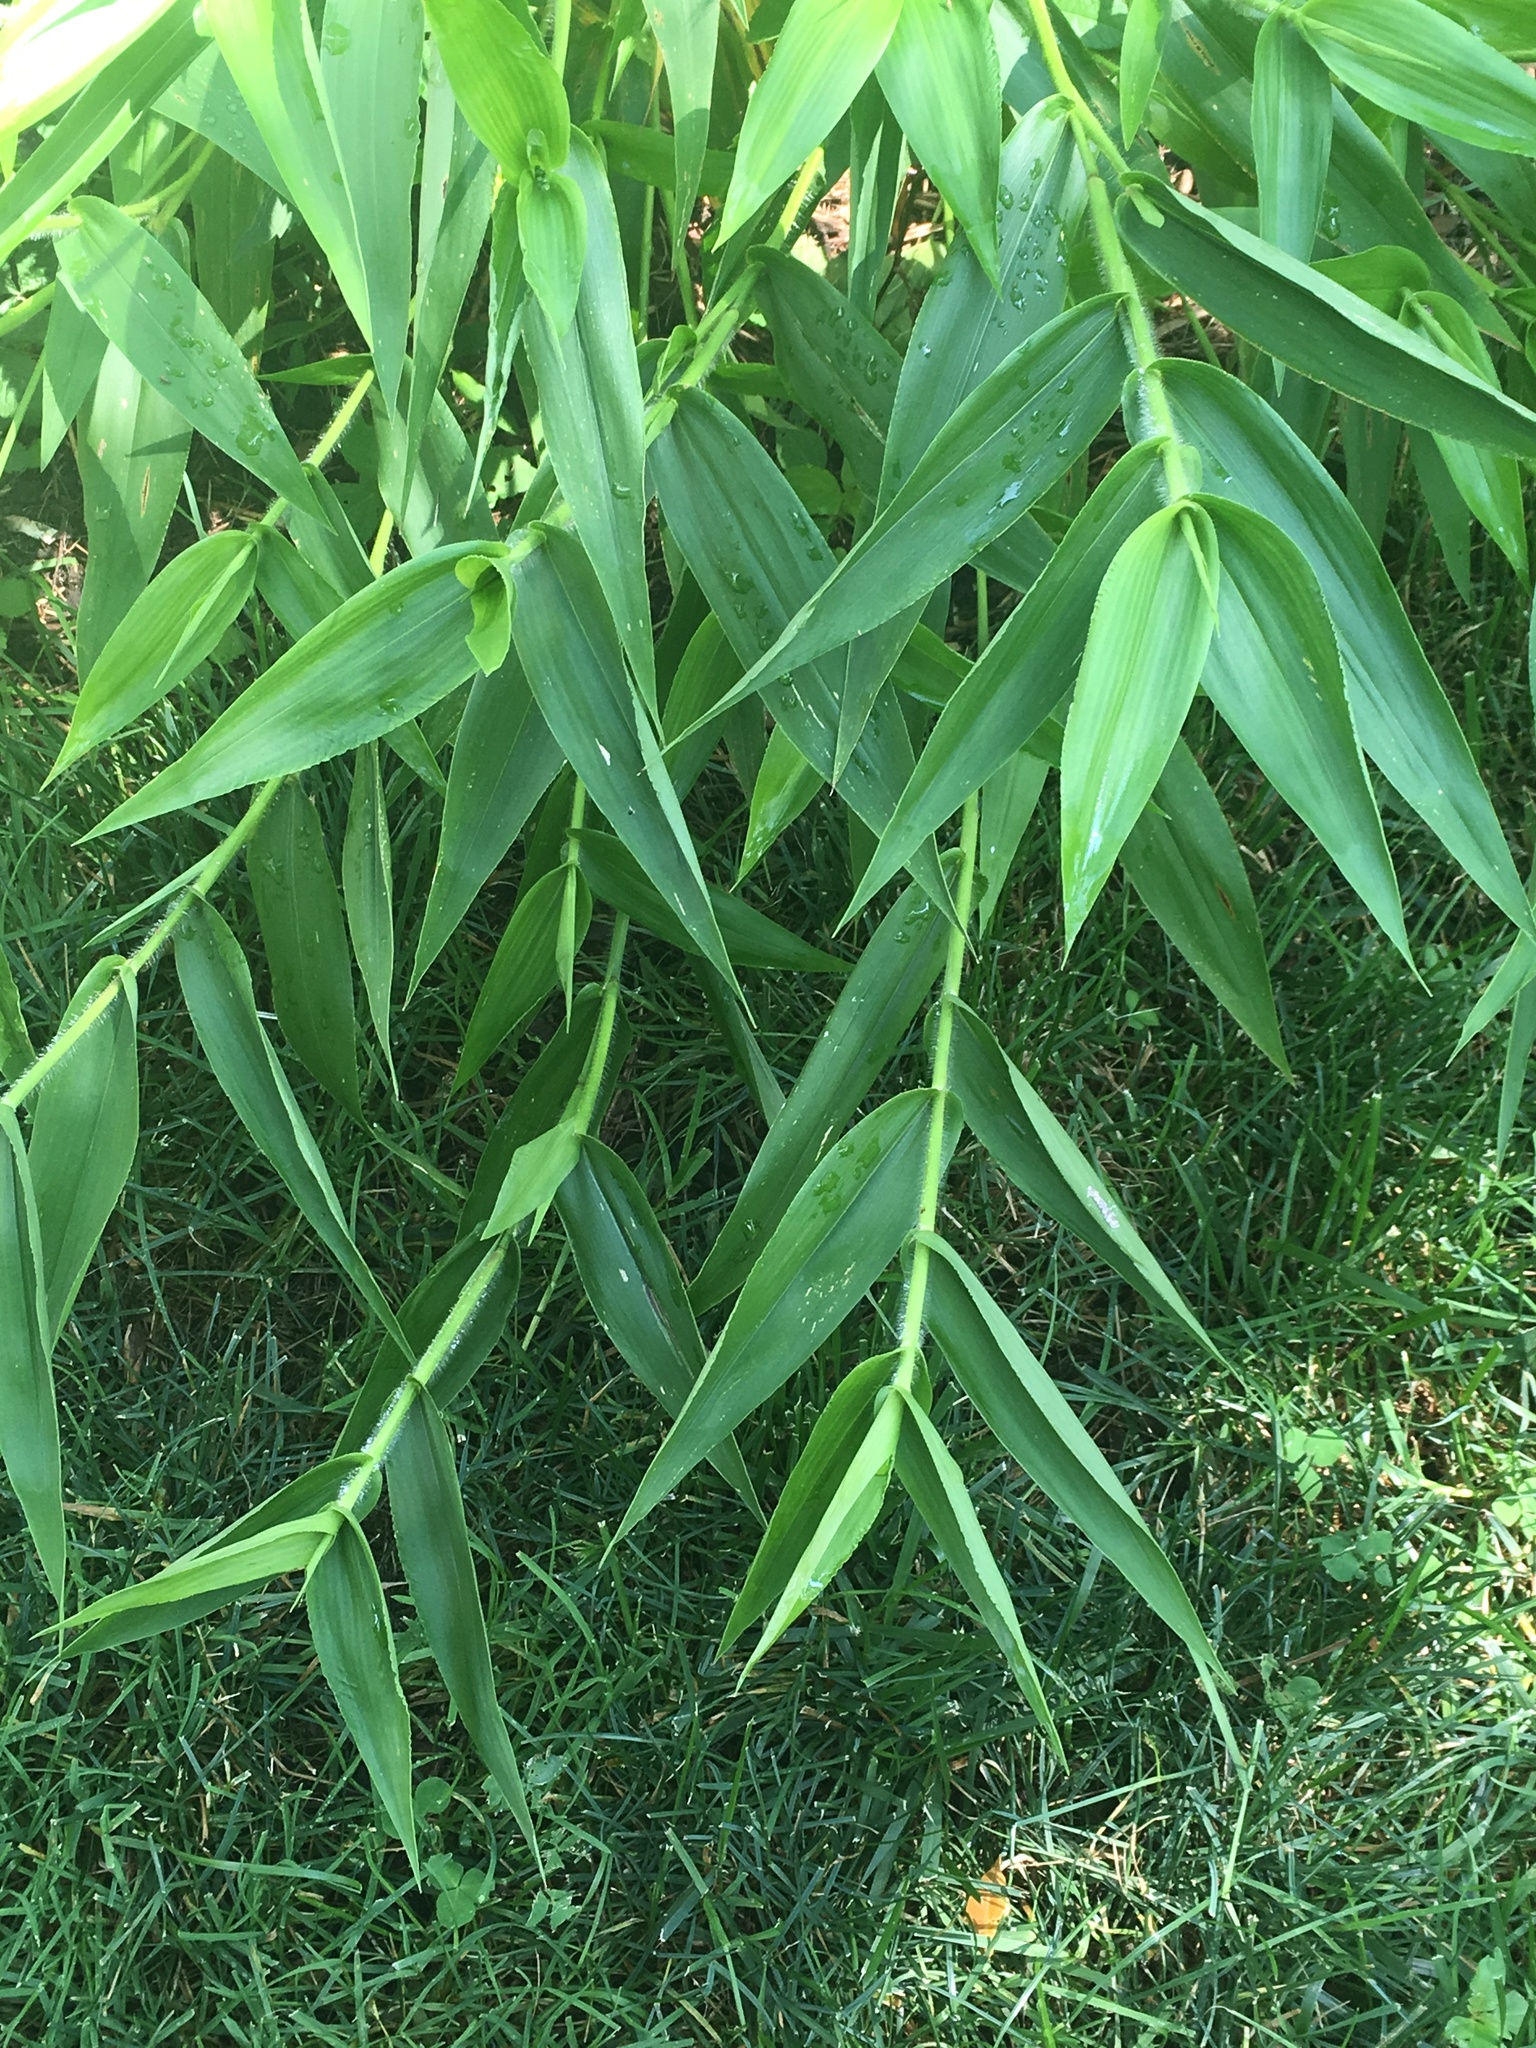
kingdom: Plantae
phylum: Tracheophyta
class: Liliopsida
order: Poales
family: Poaceae
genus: Dichanthelium
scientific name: Dichanthelium clandestinum
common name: Deer-tongue grass
